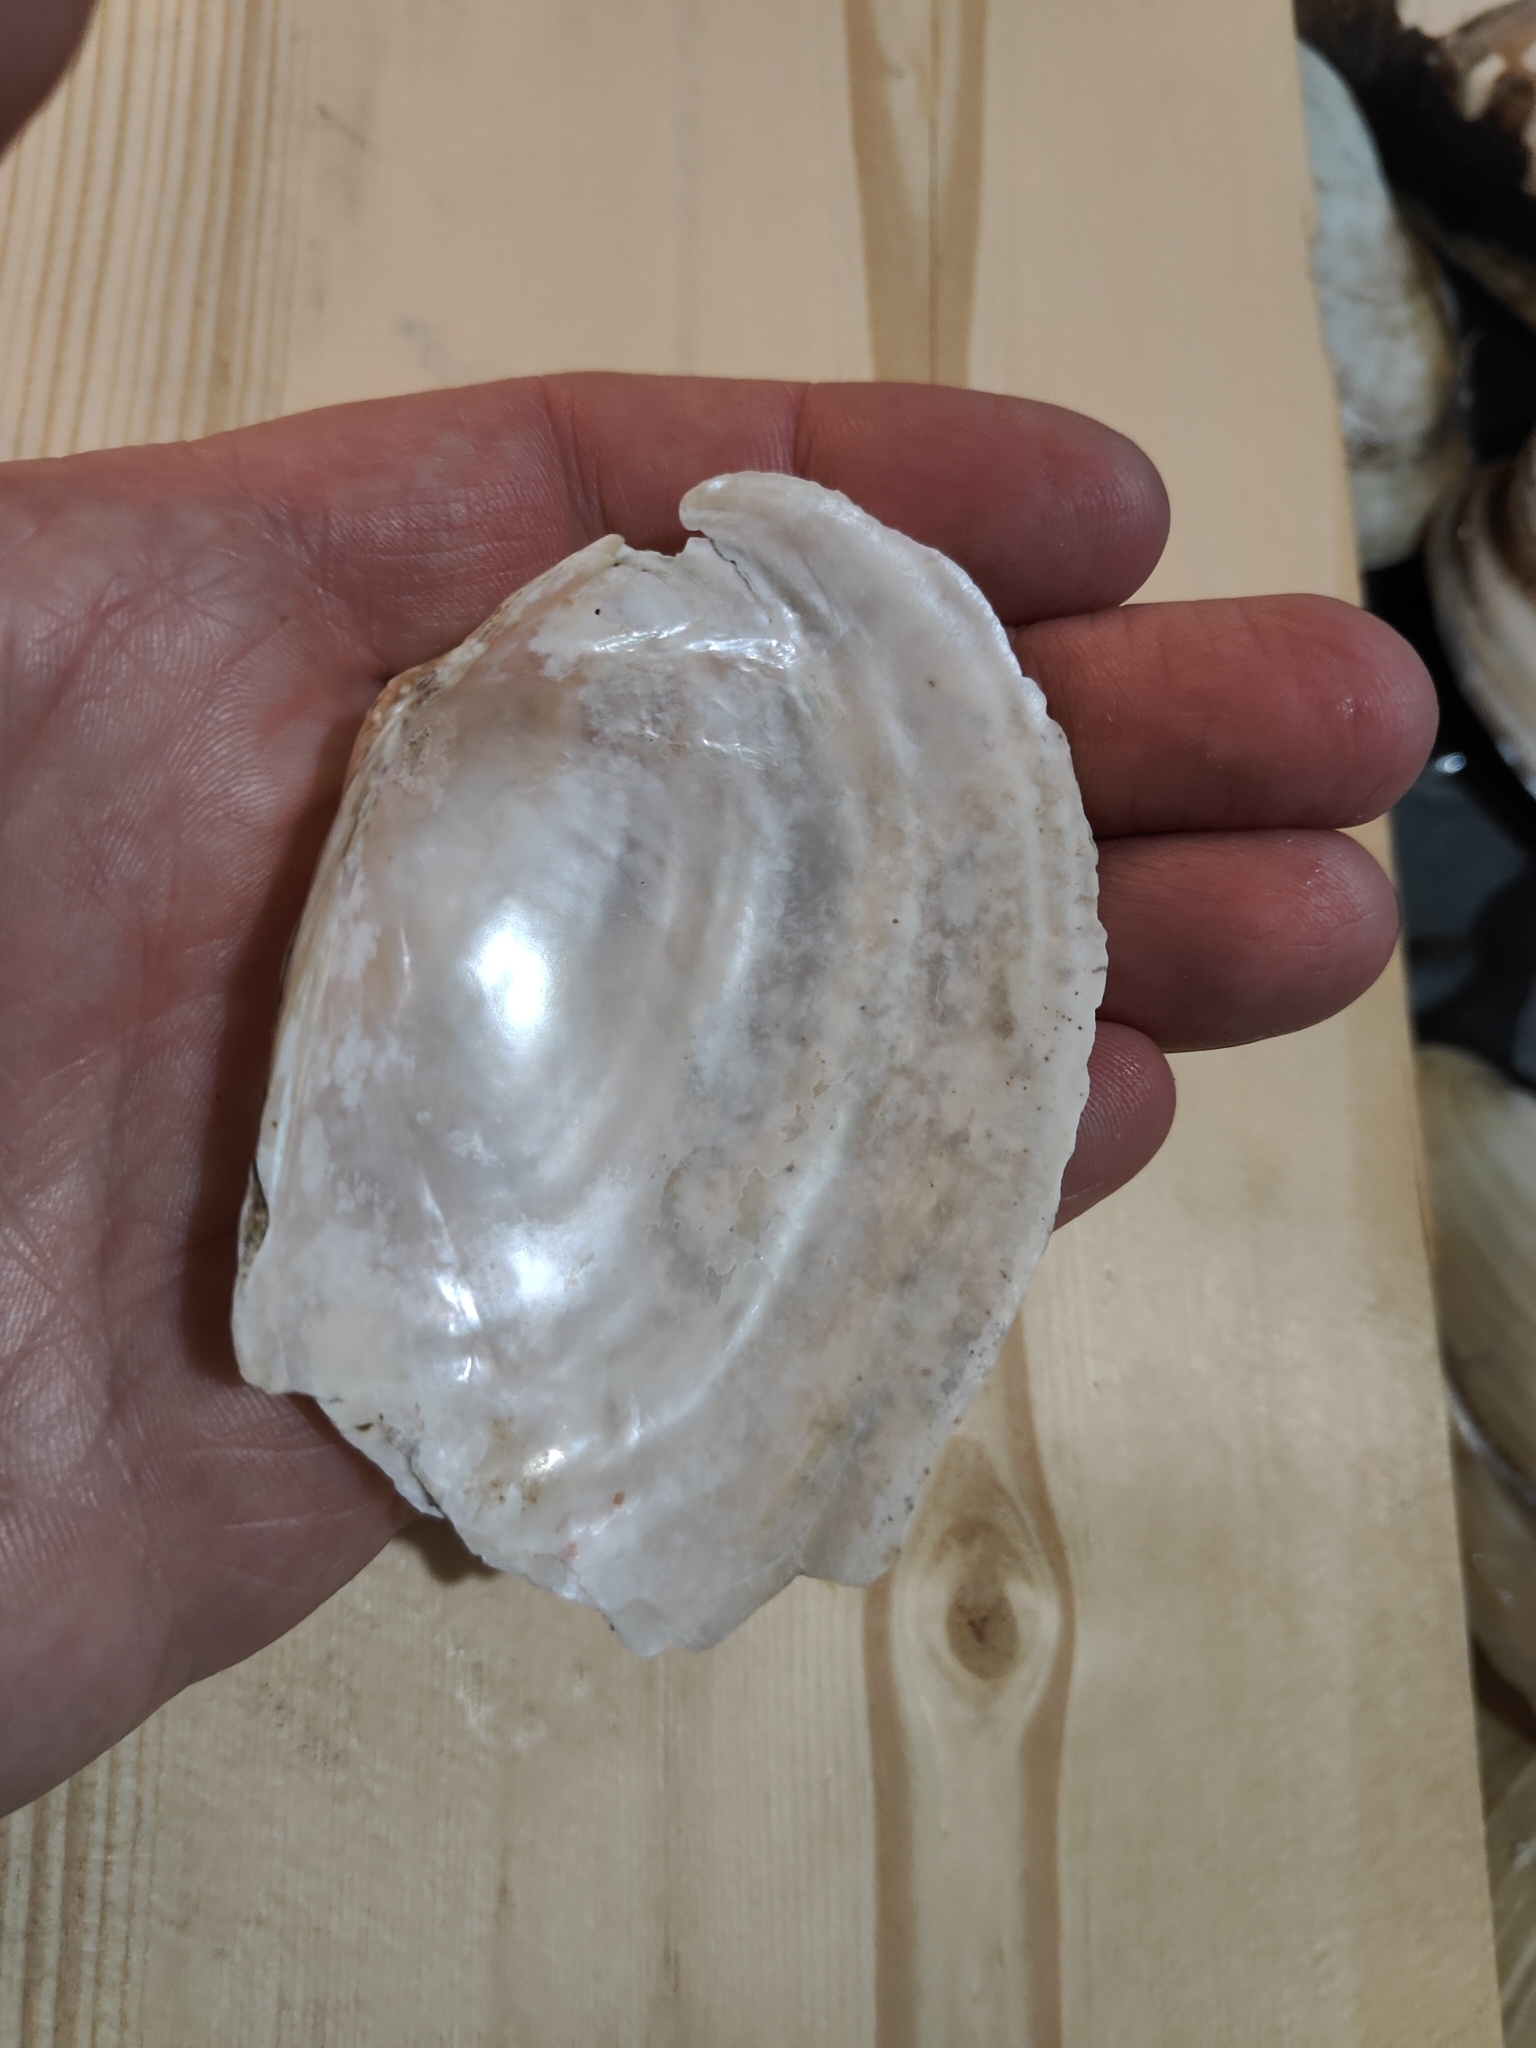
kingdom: Animalia
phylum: Mollusca
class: Bivalvia
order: Unionida
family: Unionidae
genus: Pyganodon
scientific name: Pyganodon grandis
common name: Giant floater
